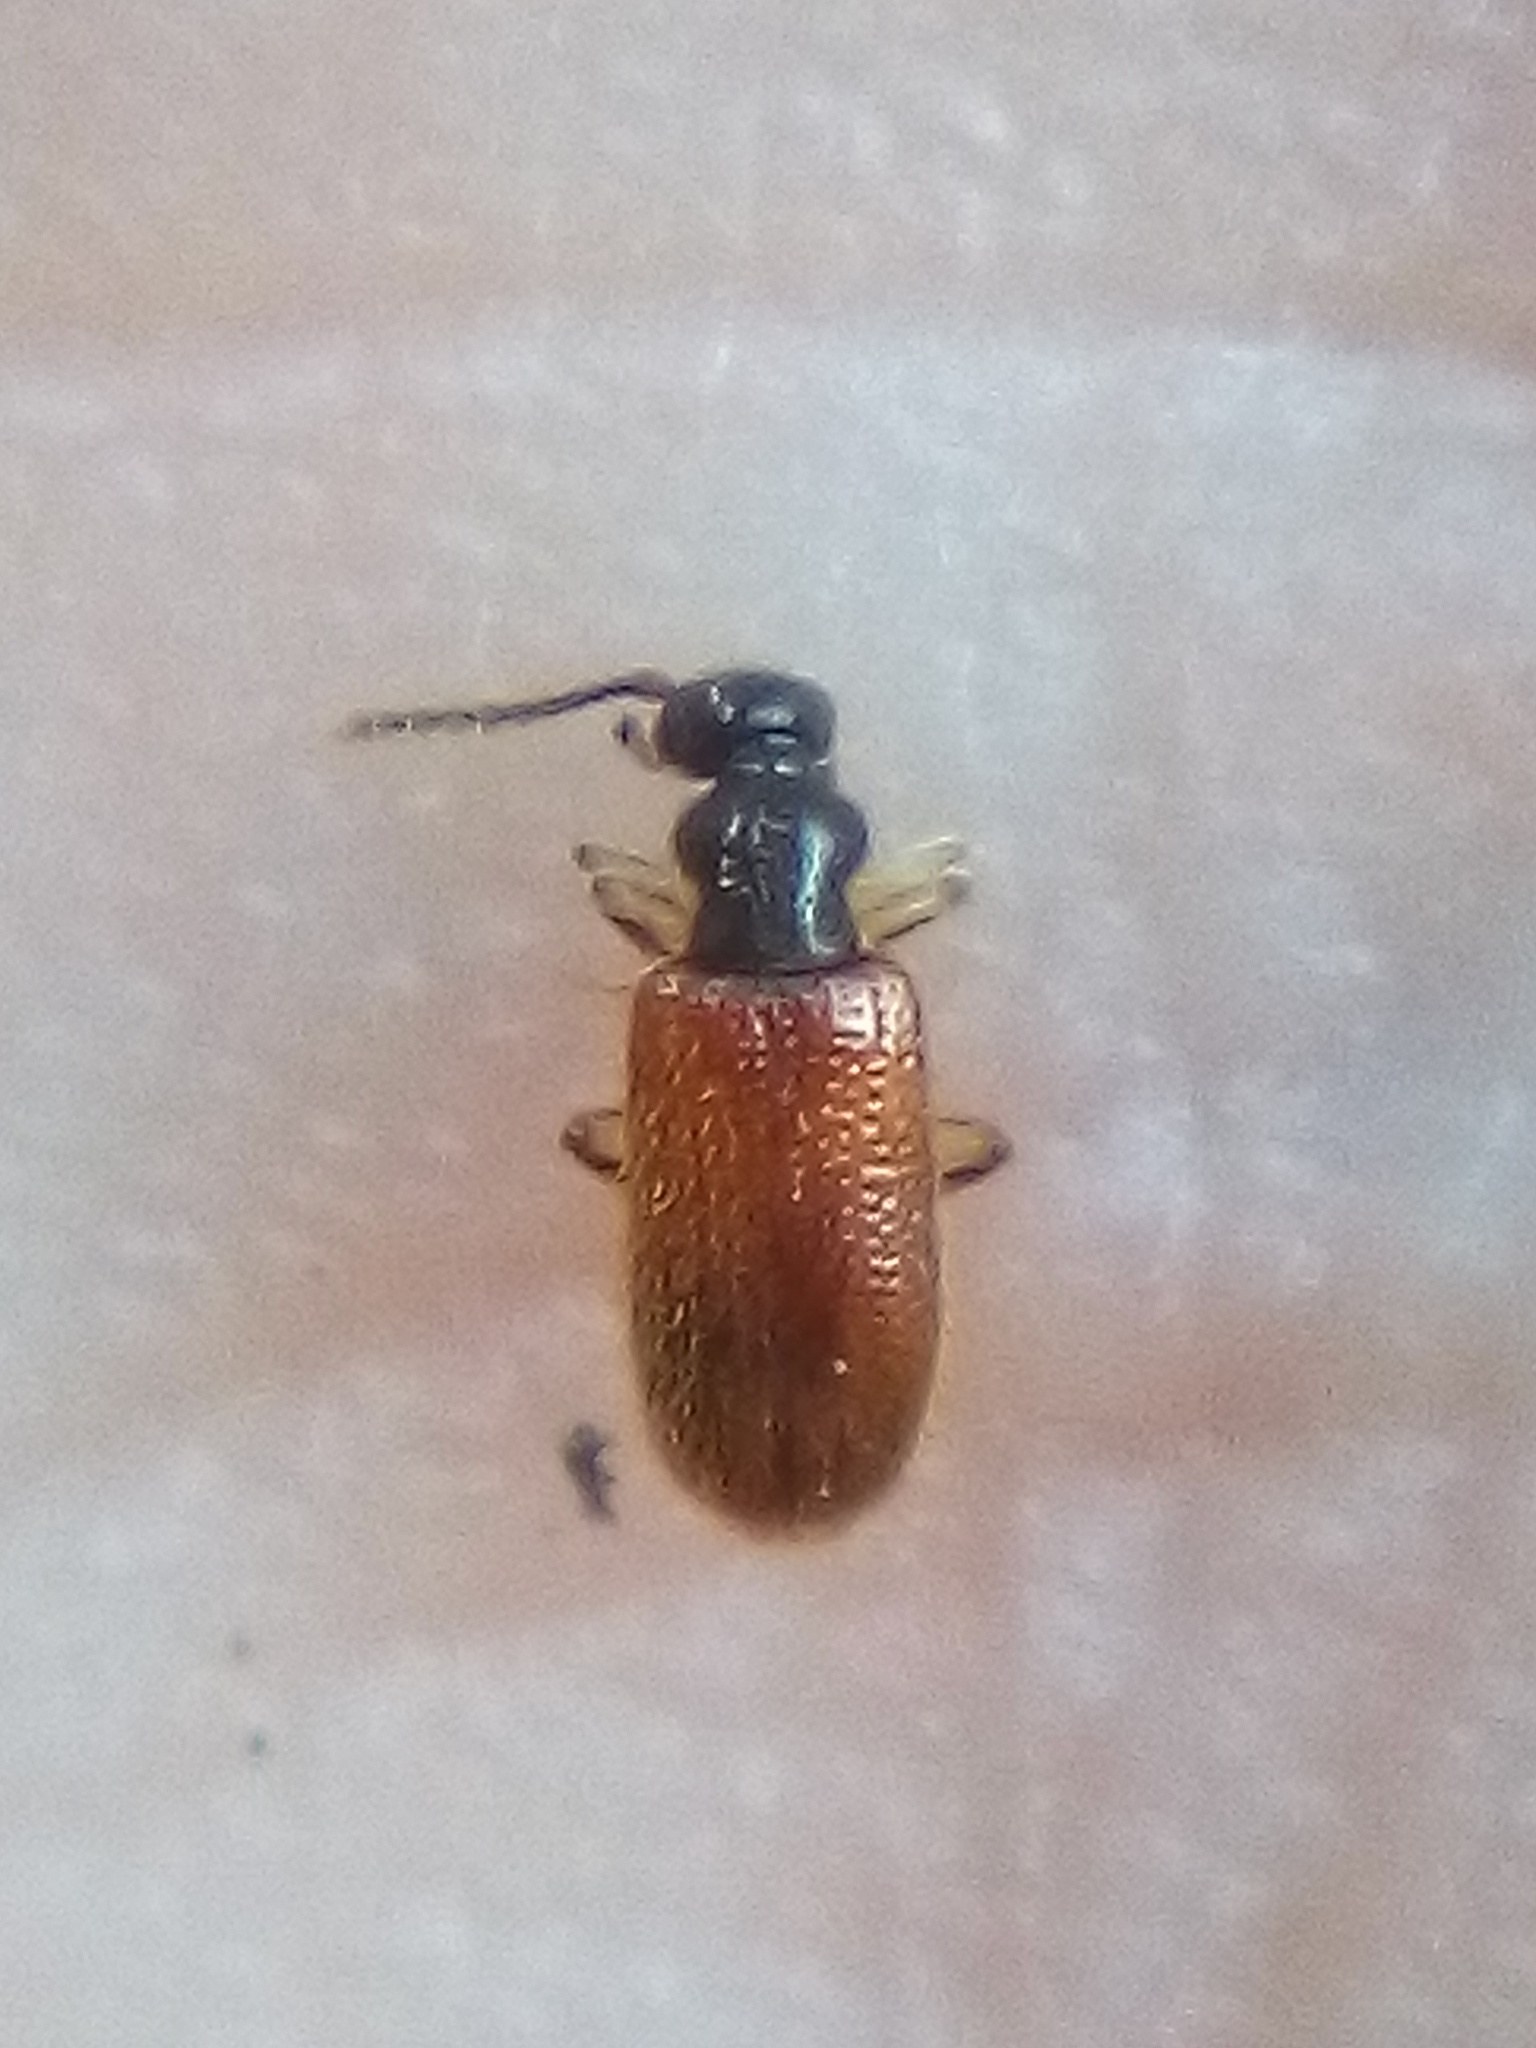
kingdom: Animalia
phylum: Arthropoda
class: Insecta
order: Coleoptera
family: Anthicidae
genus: Trichananca
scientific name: Trichananca fulgida
